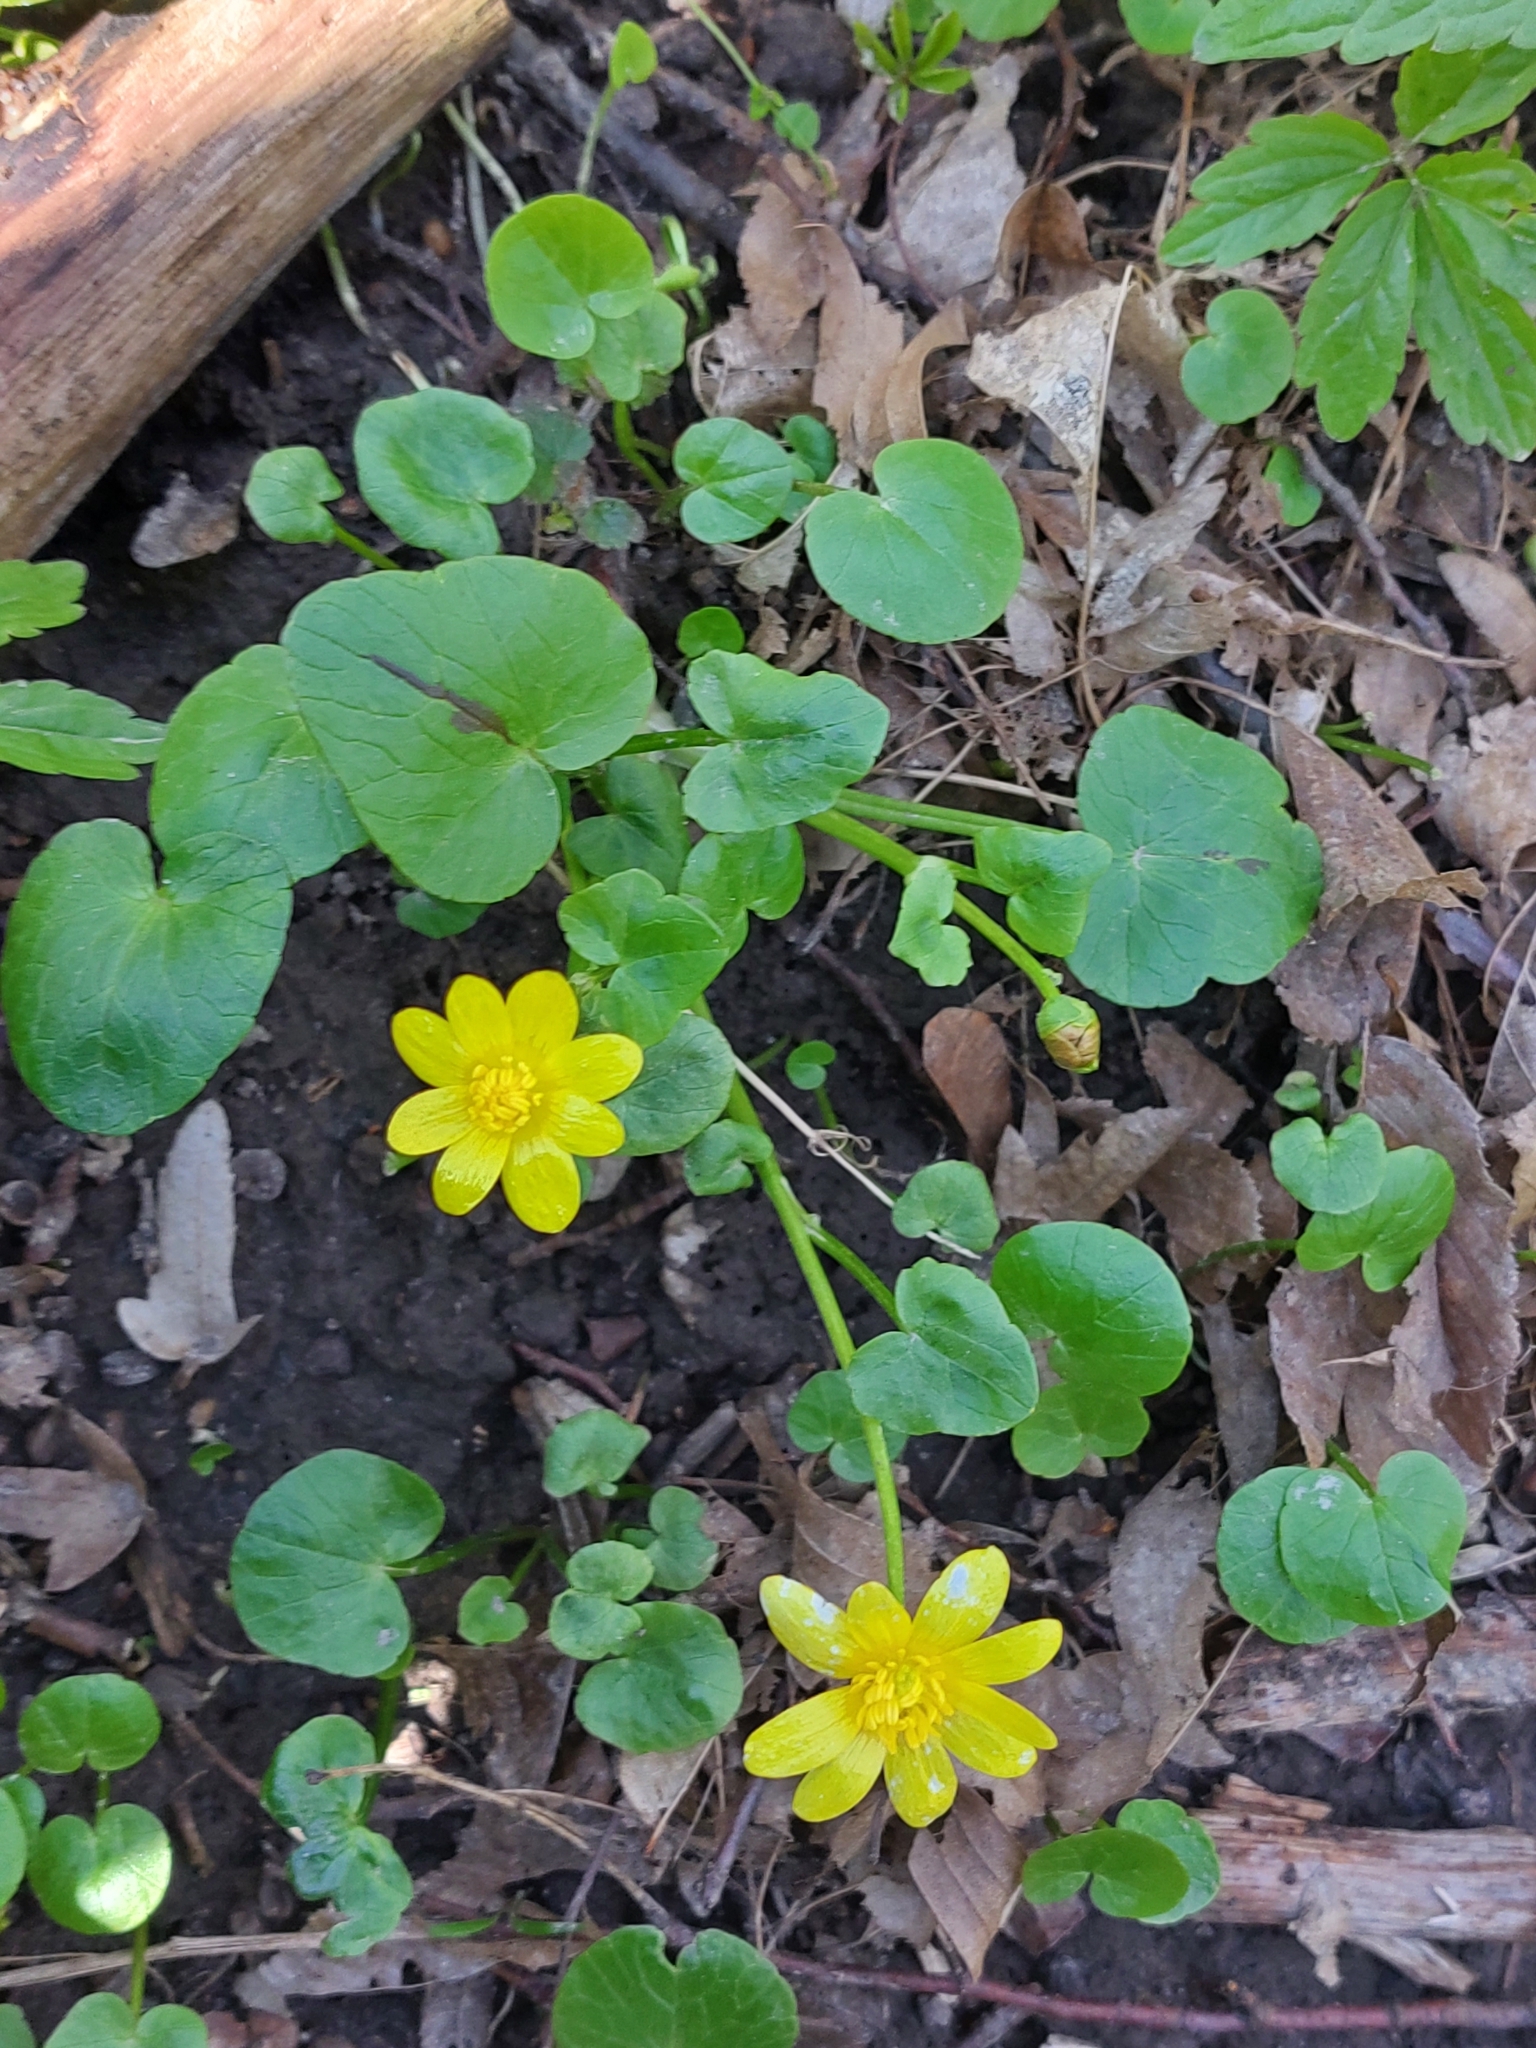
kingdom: Plantae
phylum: Tracheophyta
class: Magnoliopsida
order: Ranunculales
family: Ranunculaceae
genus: Ficaria
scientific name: Ficaria verna
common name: Lesser celandine
